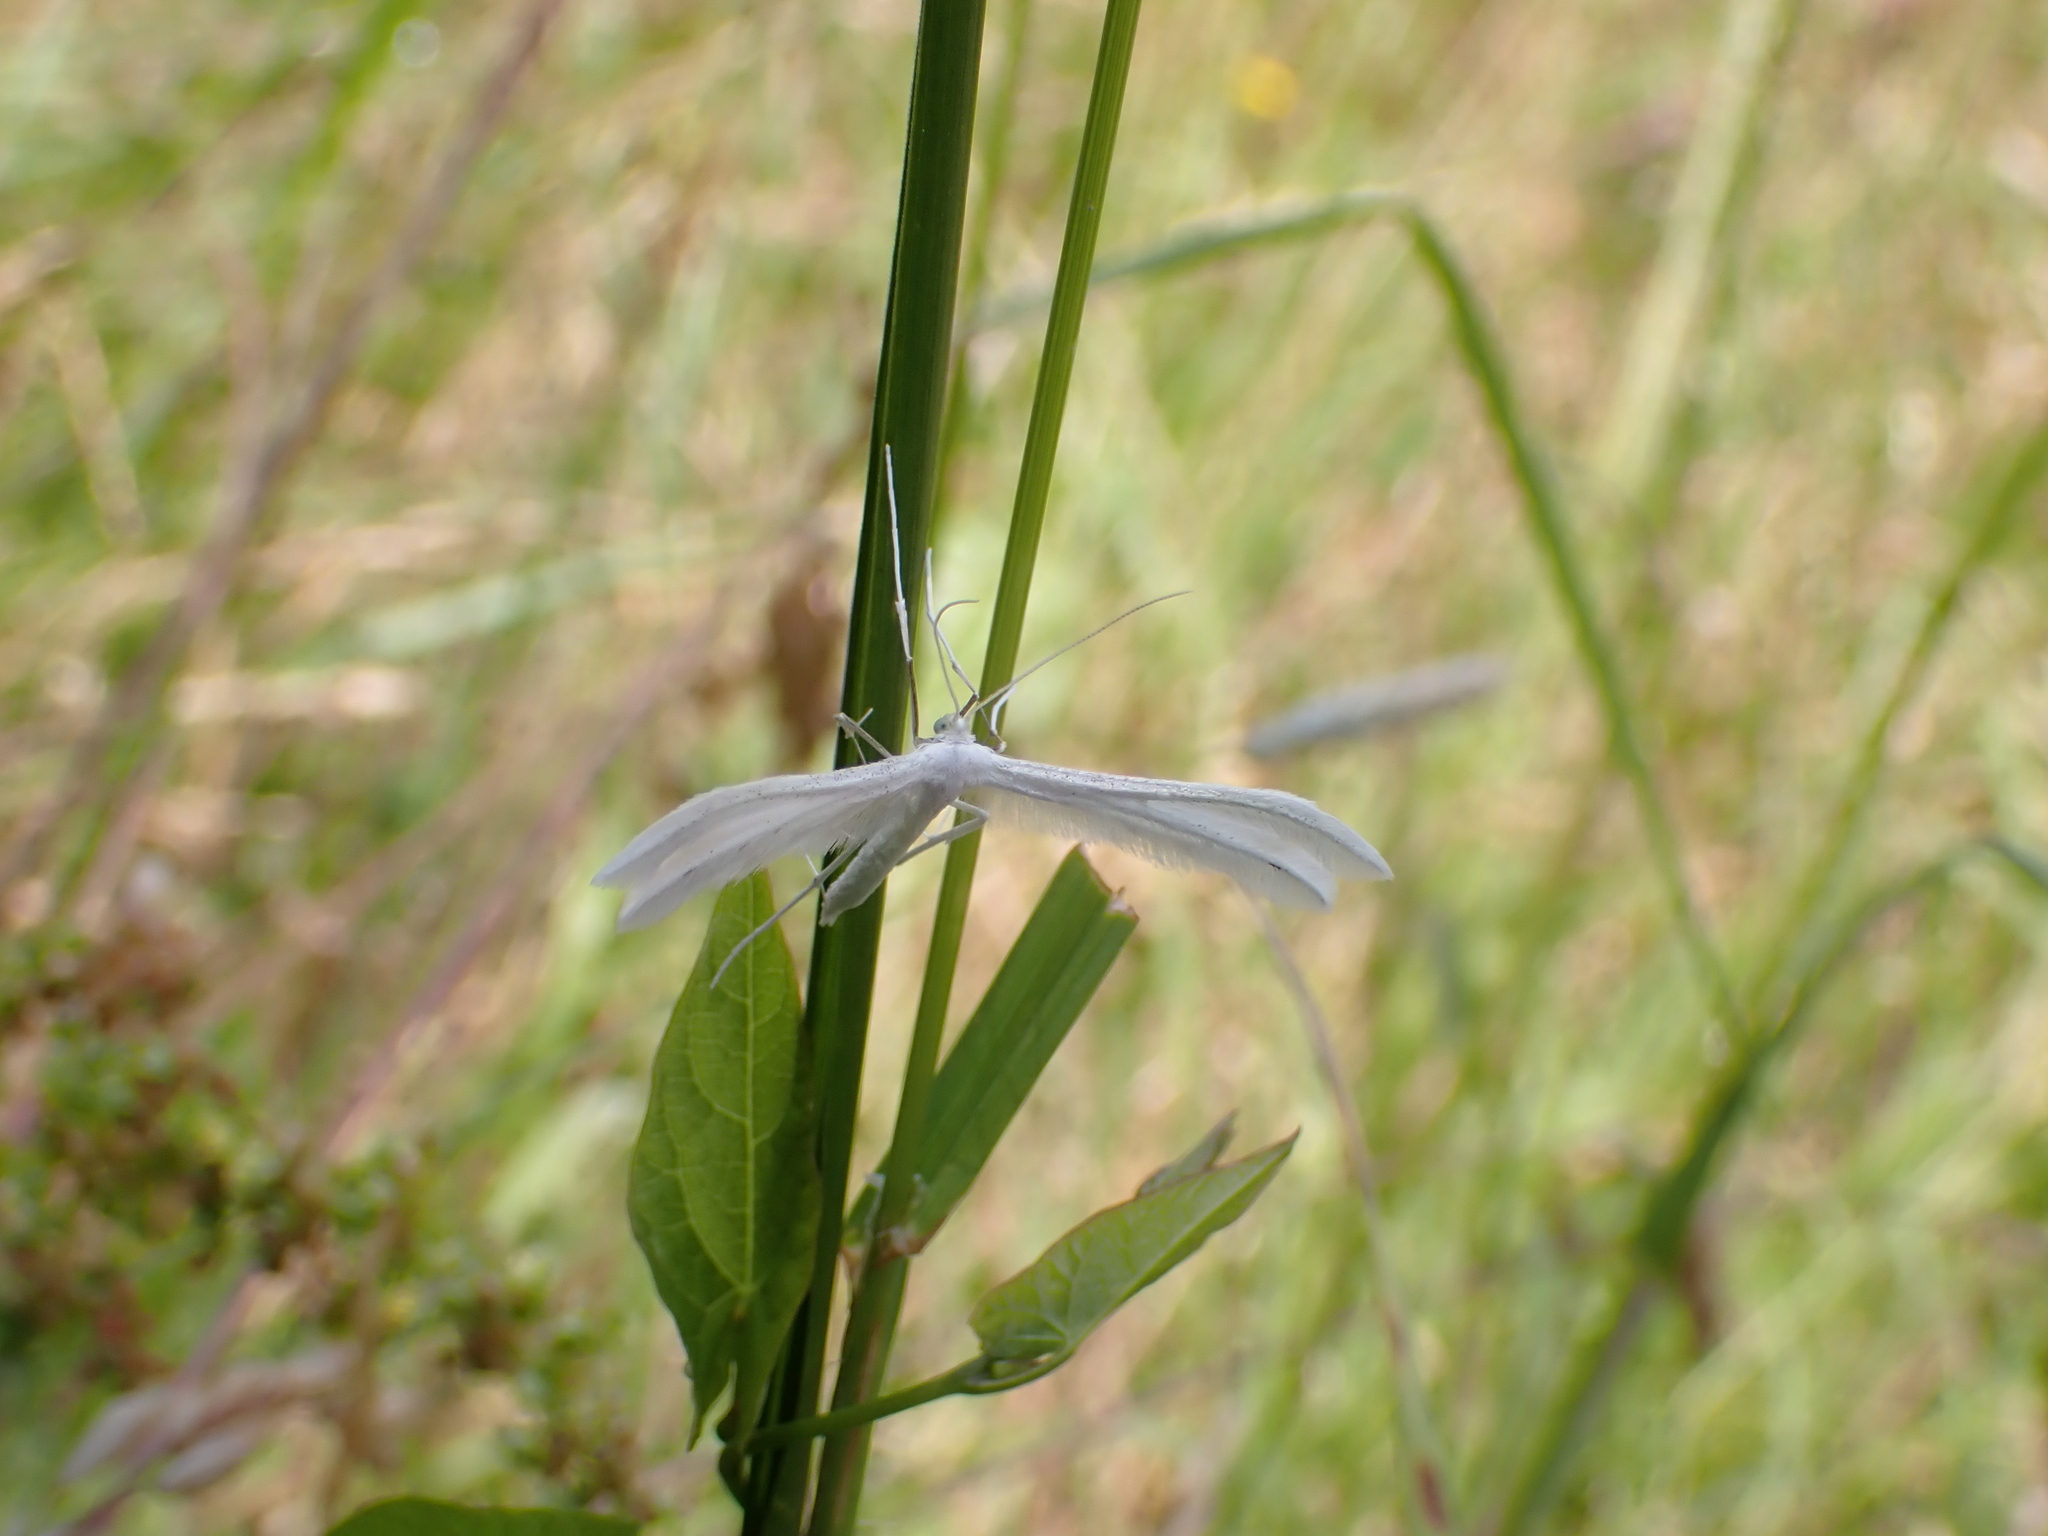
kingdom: Animalia
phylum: Arthropoda
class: Insecta
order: Lepidoptera
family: Pterophoridae
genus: Pterophorus
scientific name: Pterophorus pentadactyla
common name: White plume moth
